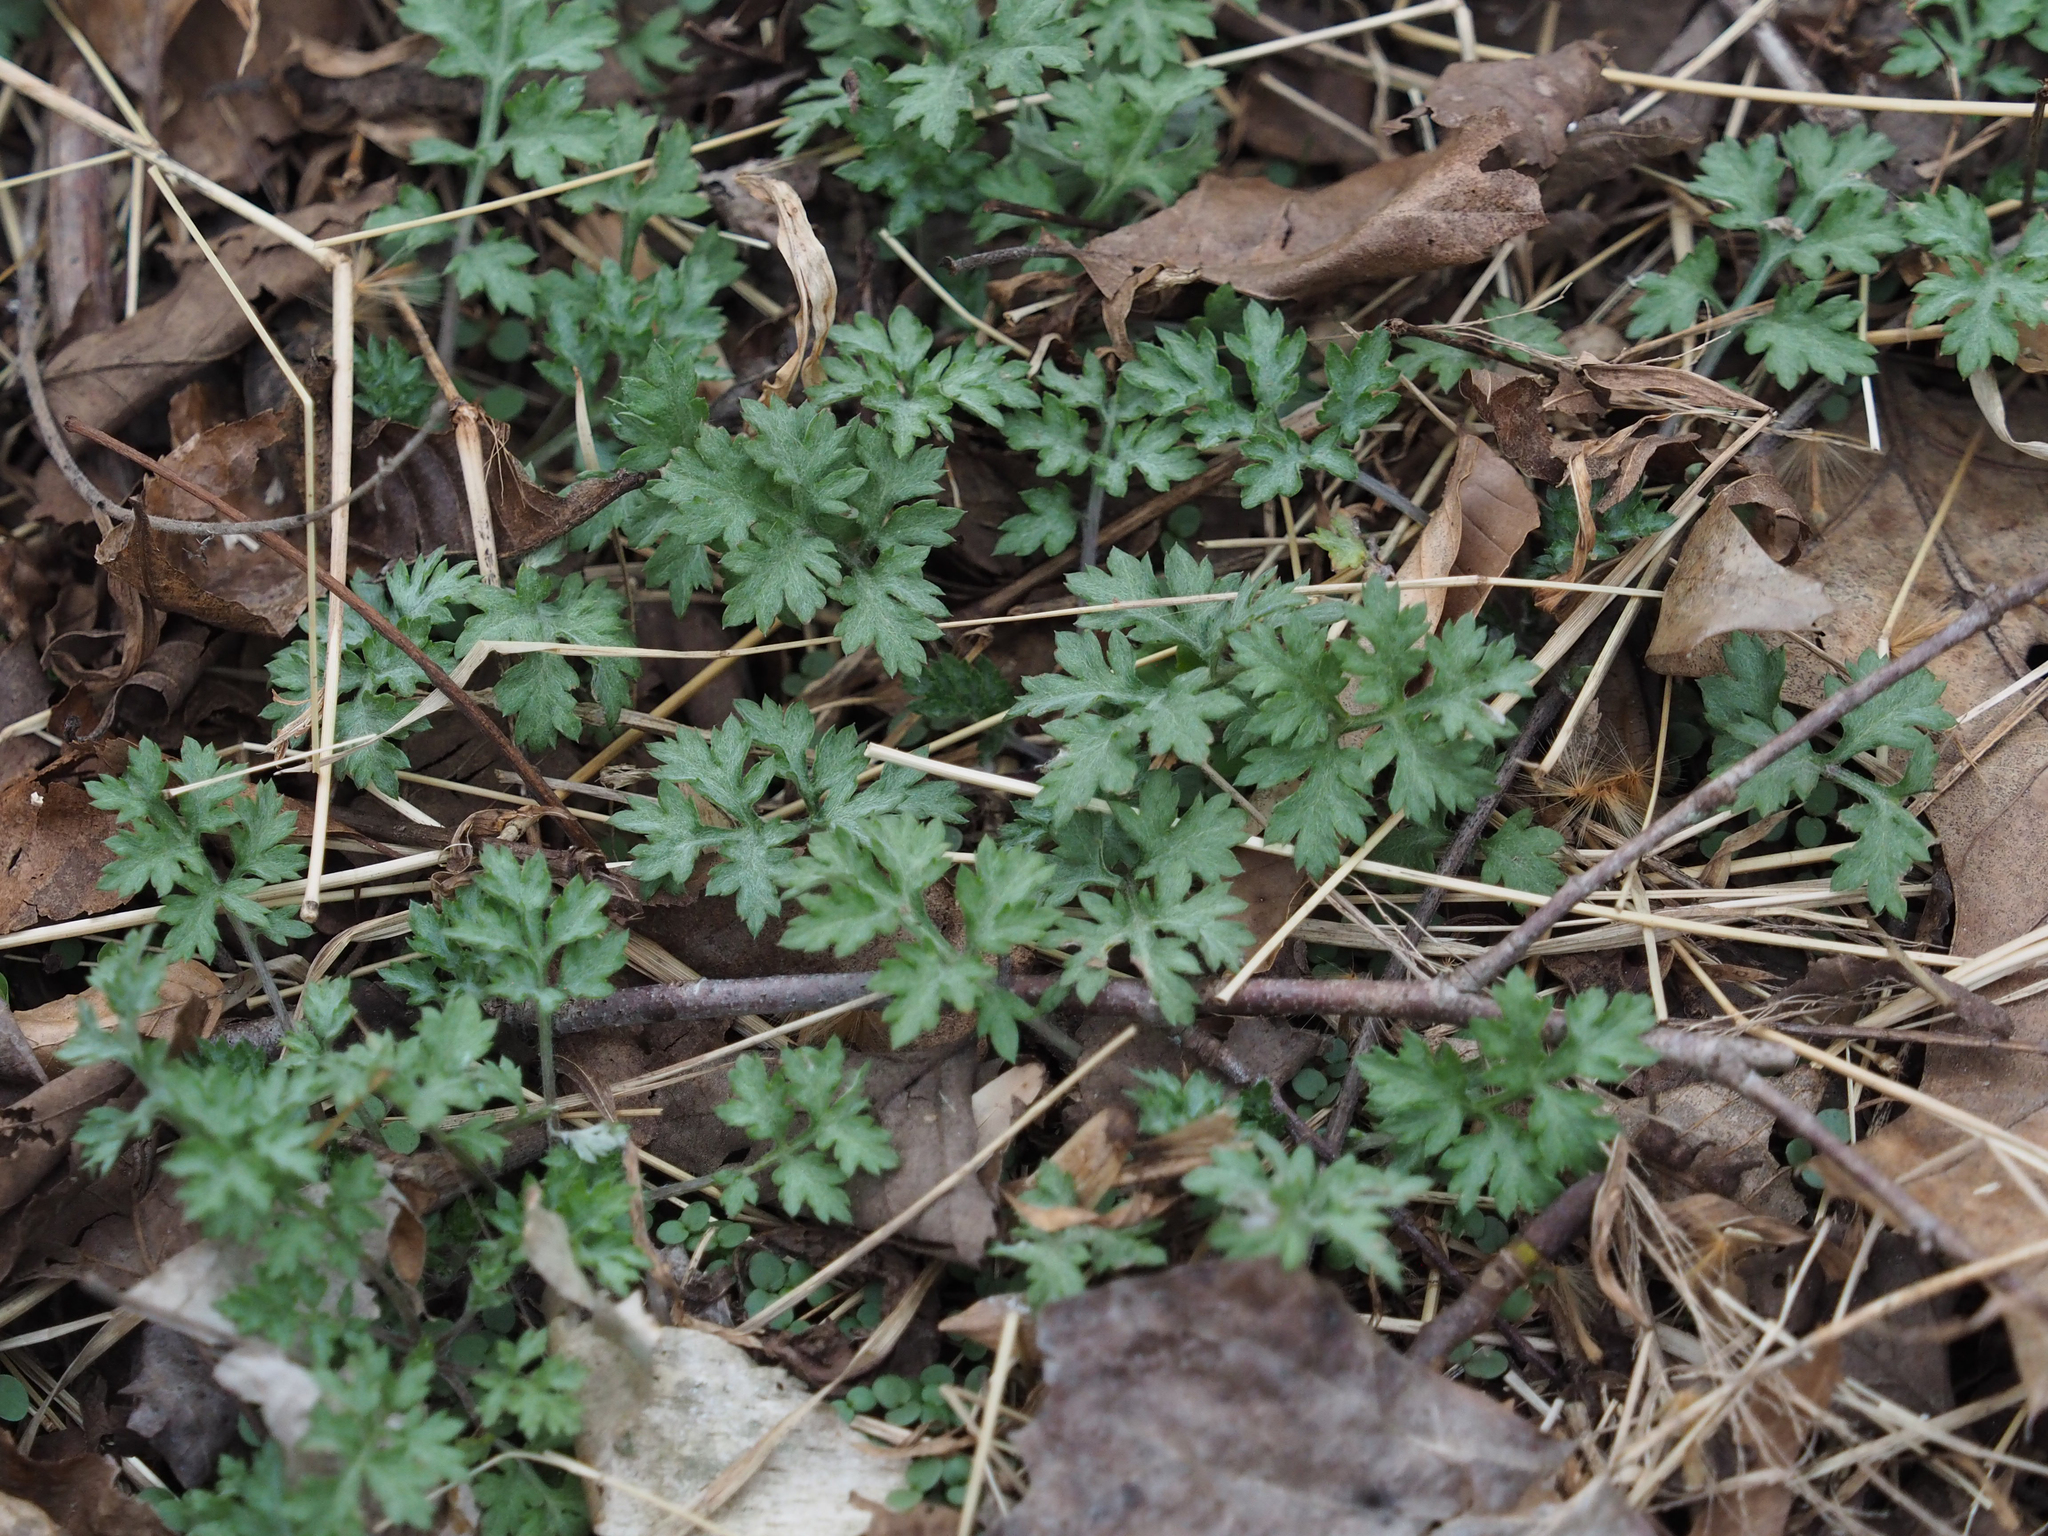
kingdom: Plantae
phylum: Tracheophyta
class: Magnoliopsida
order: Asterales
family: Asteraceae
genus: Artemisia
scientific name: Artemisia vulgaris
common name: Mugwort
